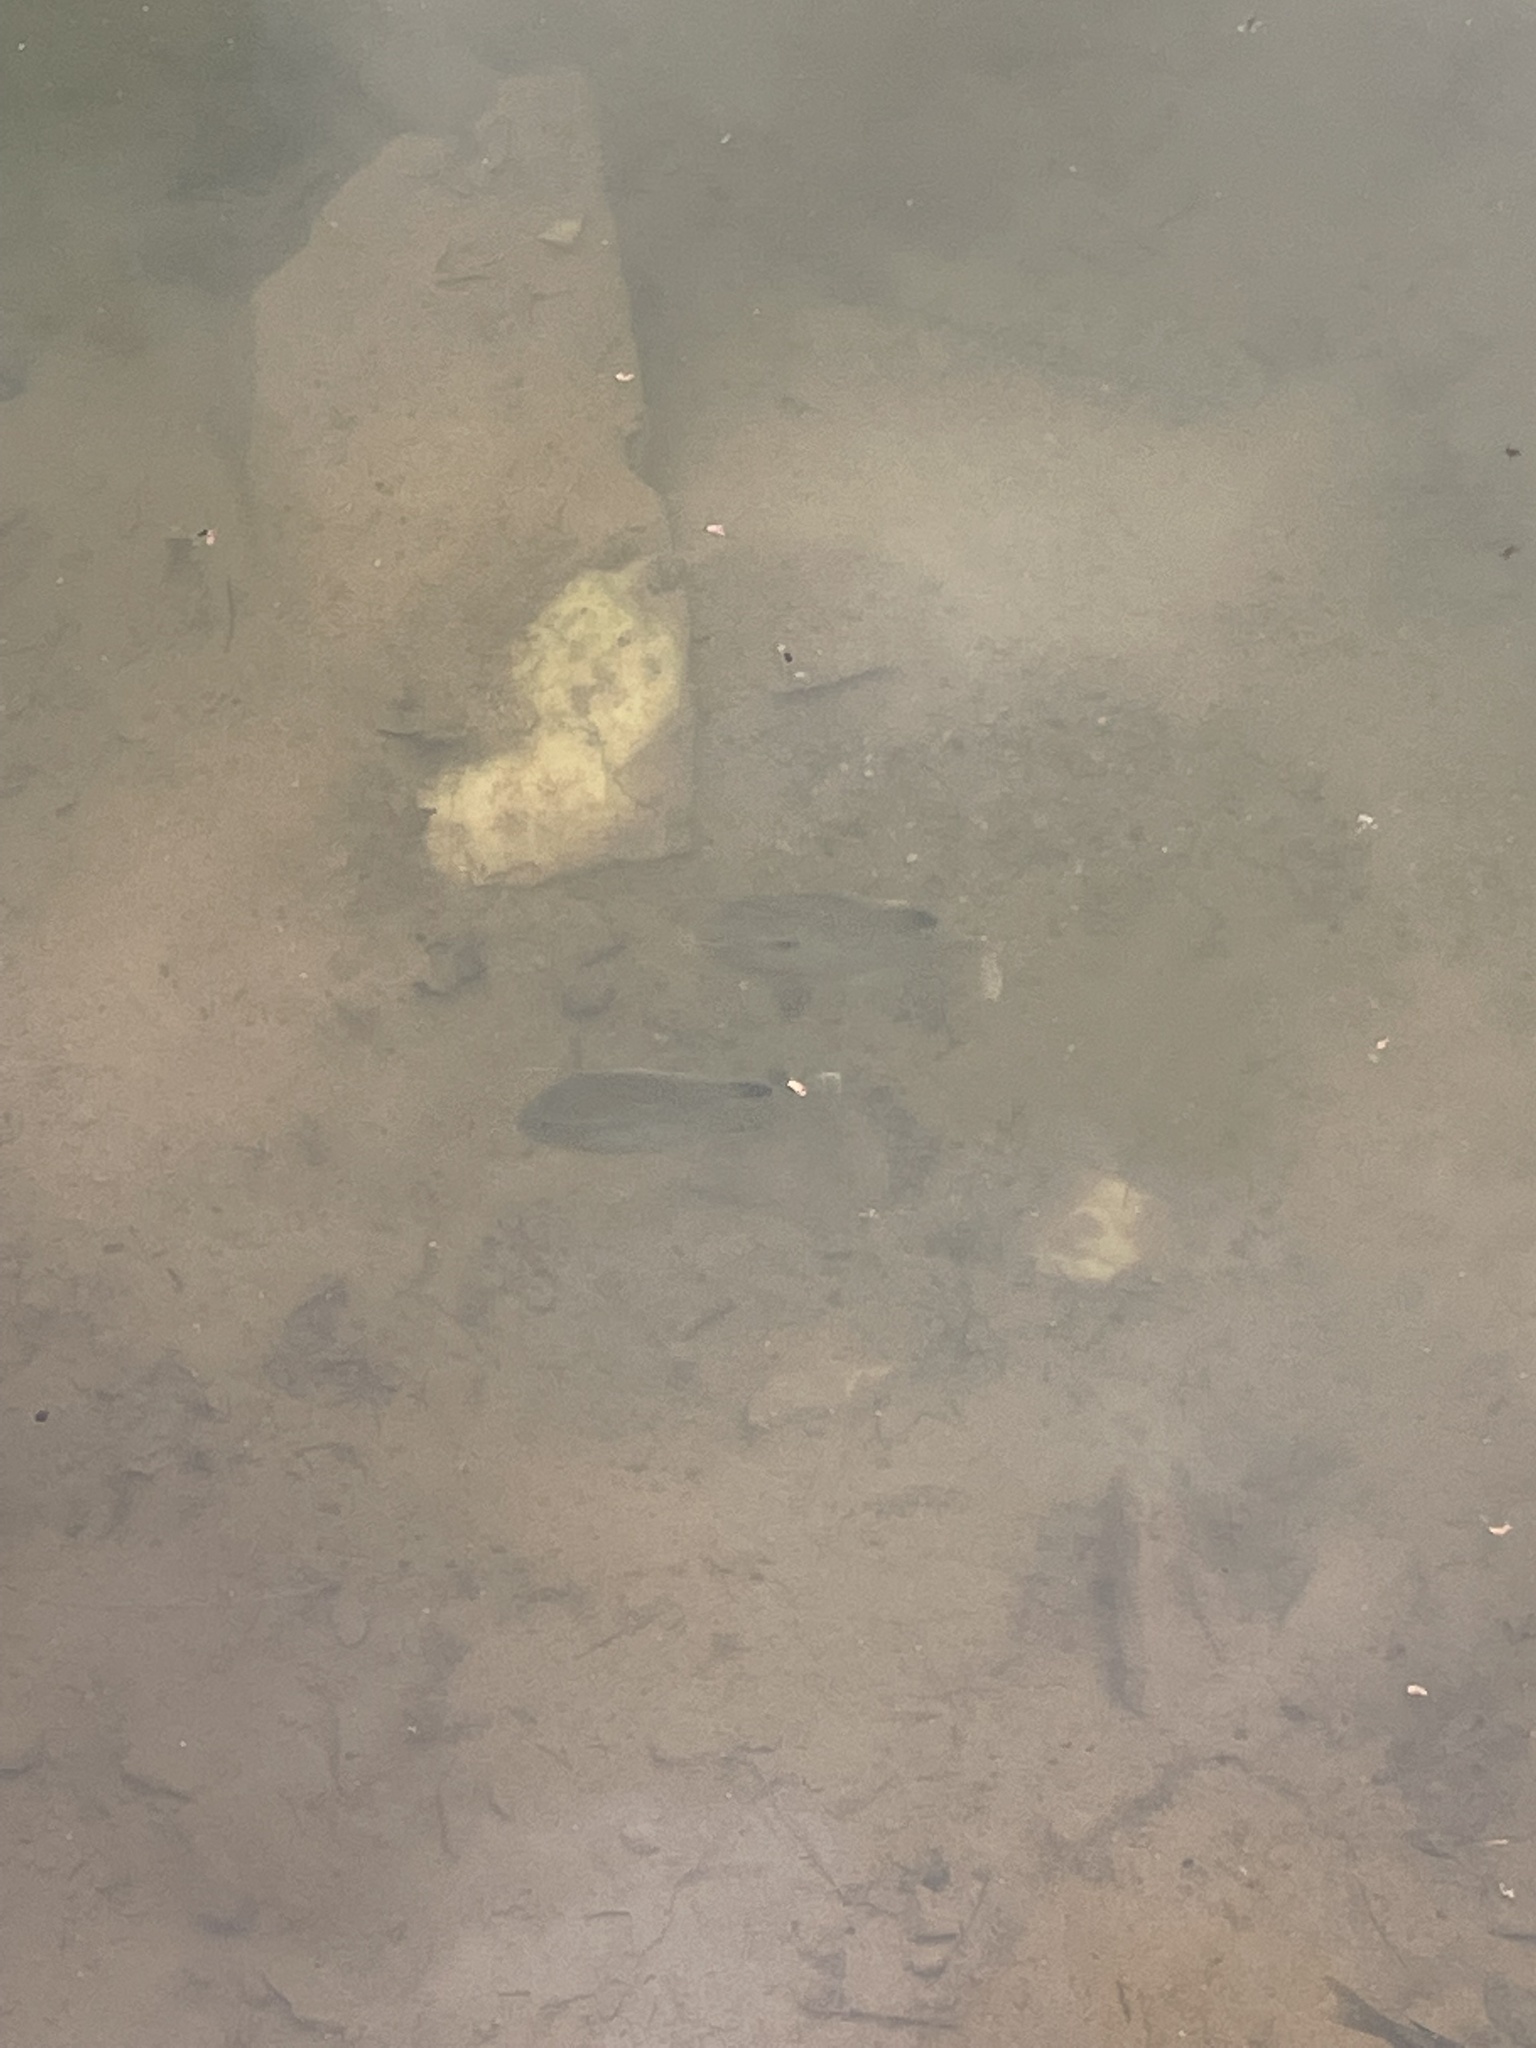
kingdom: Animalia
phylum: Chordata
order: Perciformes
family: Centrarchidae
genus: Lepomis
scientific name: Lepomis auritus
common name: Redbreast sunfish
